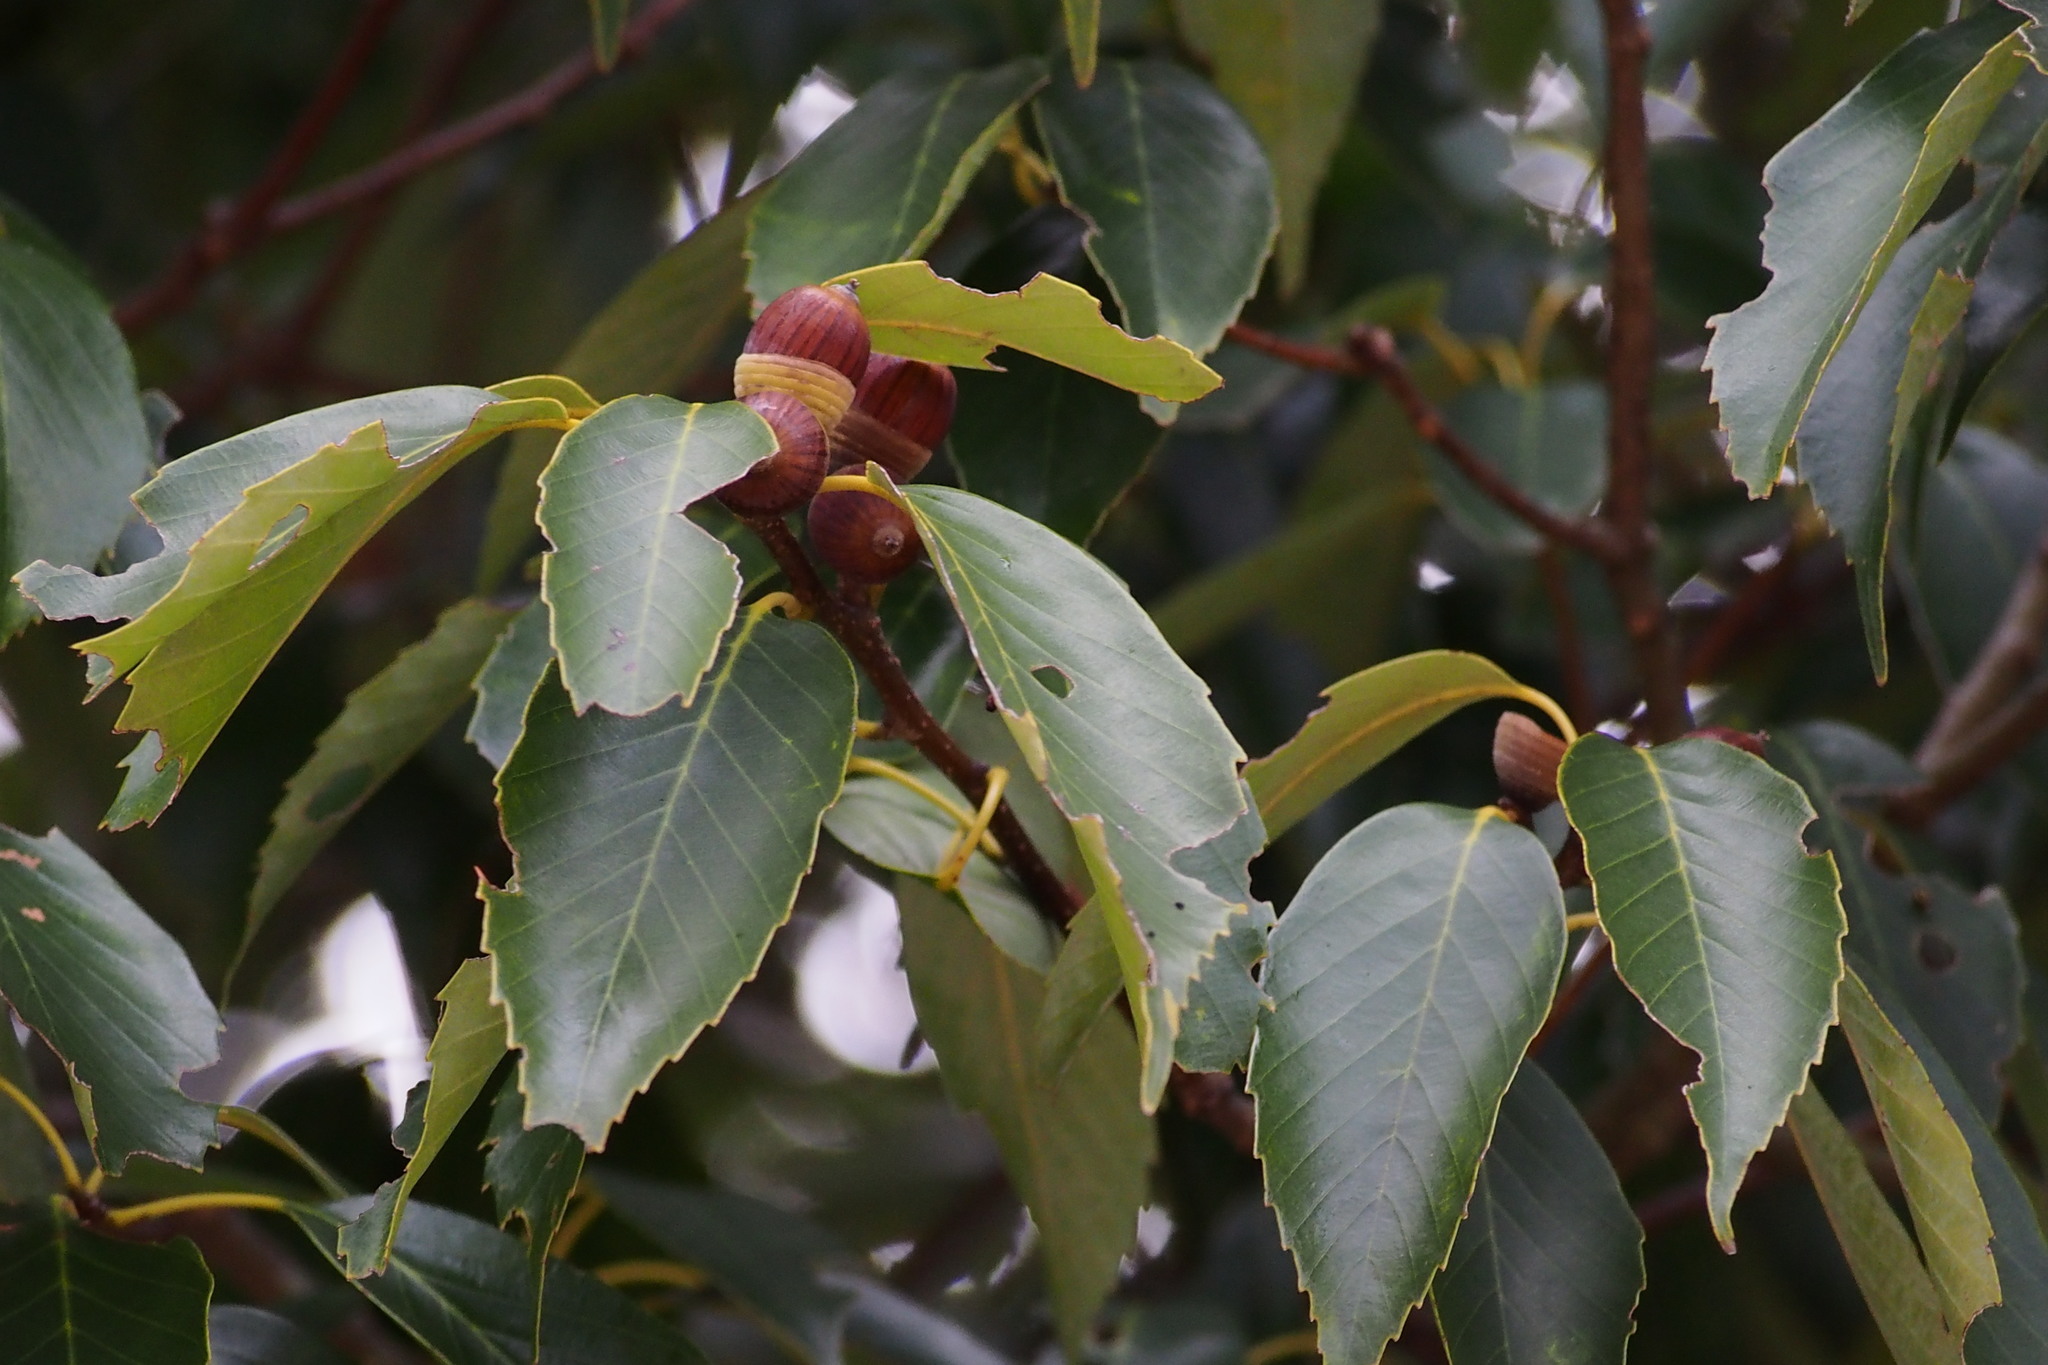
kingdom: Plantae
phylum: Tracheophyta
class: Magnoliopsida
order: Fagales
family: Fagaceae
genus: Quercus
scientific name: Quercus glauca
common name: Ring-cup oak
